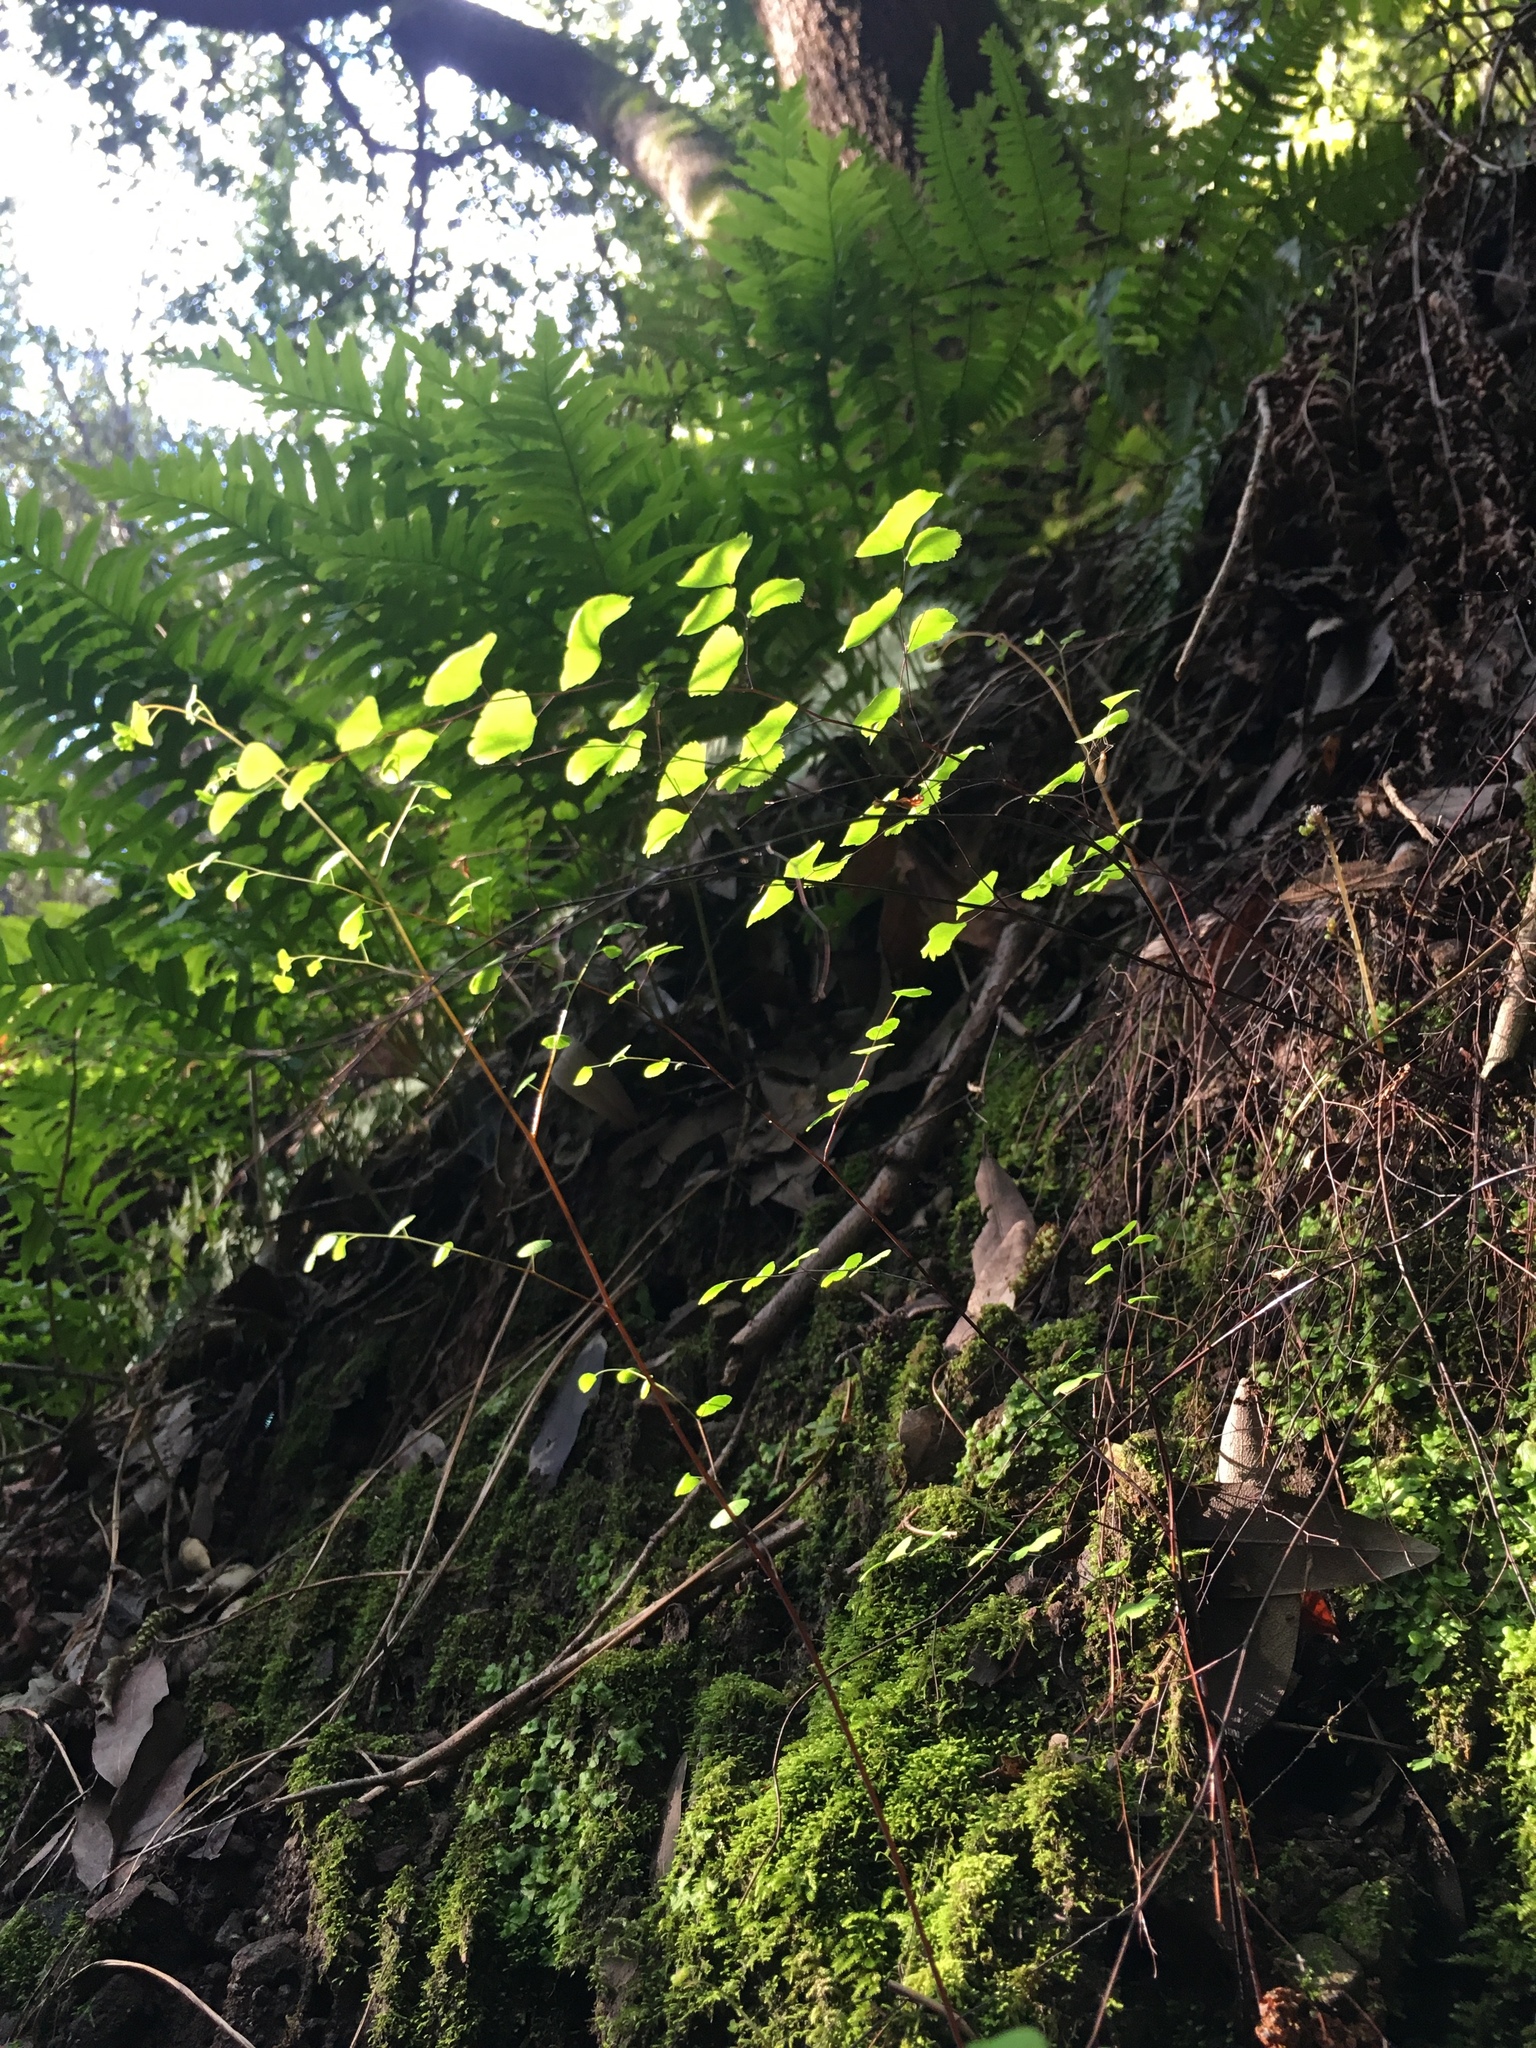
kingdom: Plantae
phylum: Tracheophyta
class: Polypodiopsida
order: Polypodiales
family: Pteridaceae
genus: Adiantum
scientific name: Adiantum jordanii
